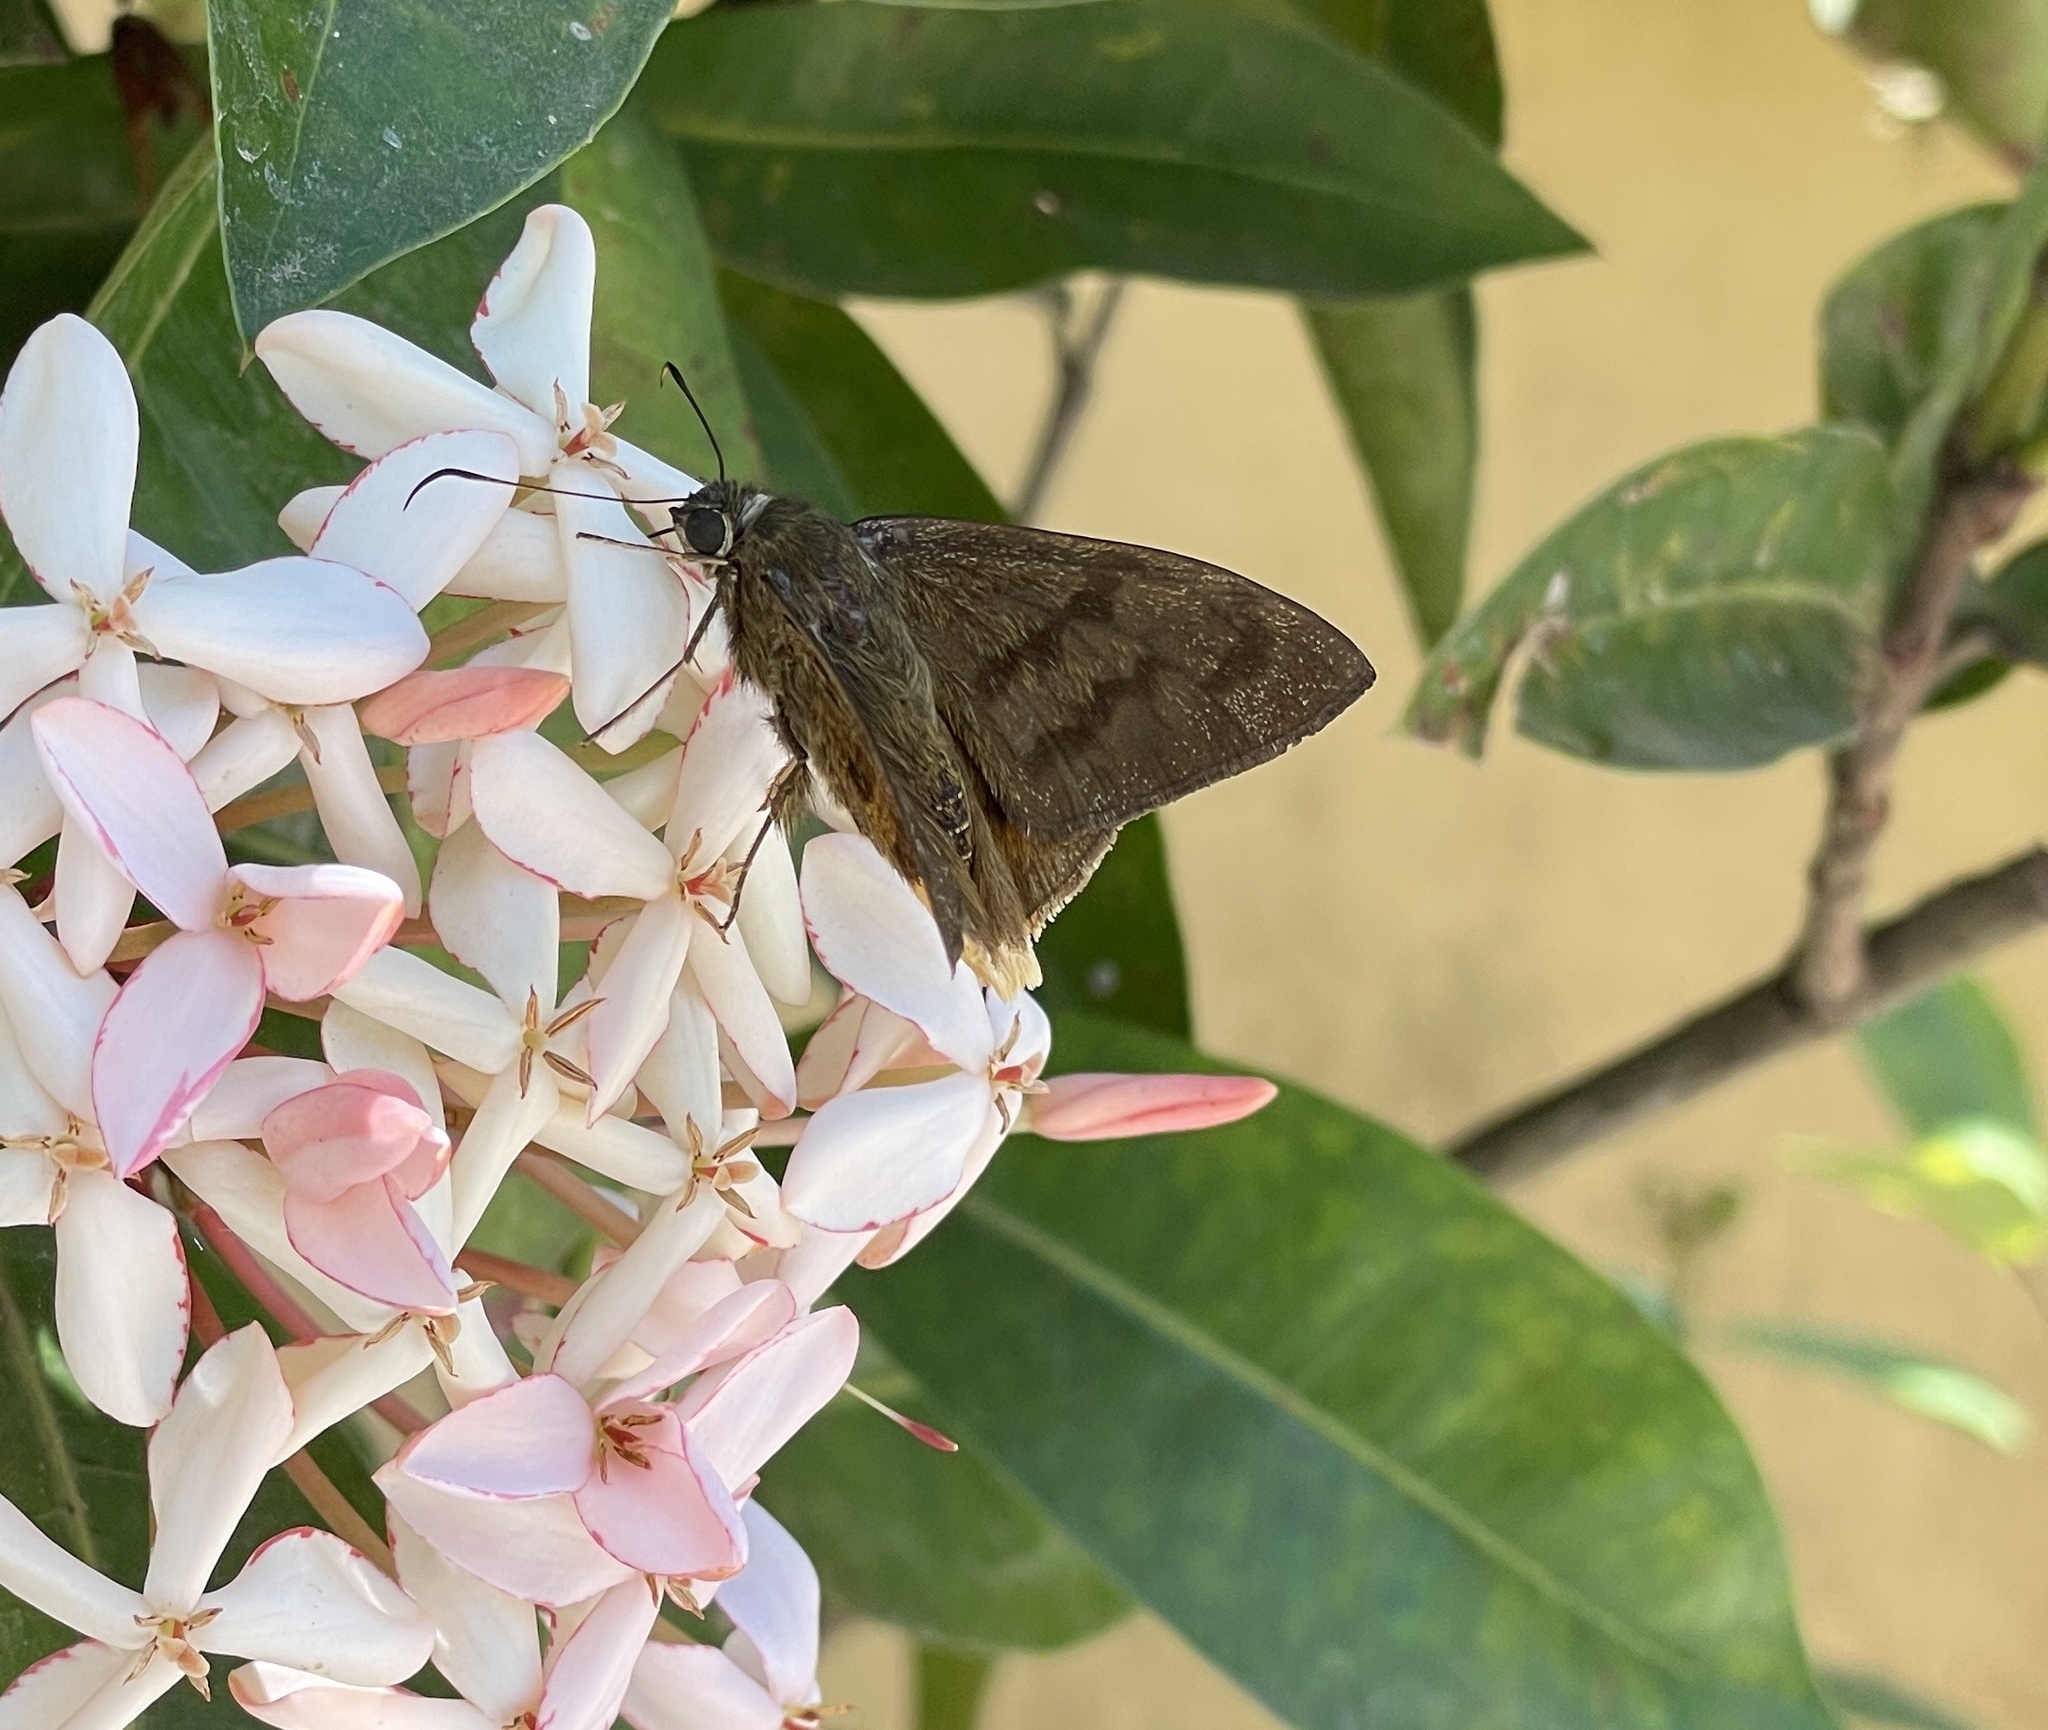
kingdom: Animalia
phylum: Arthropoda
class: Insecta
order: Lepidoptera
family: Hesperiidae
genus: Astraptes
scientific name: Astraptes anaphus
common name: Yellow-tipped flasher
